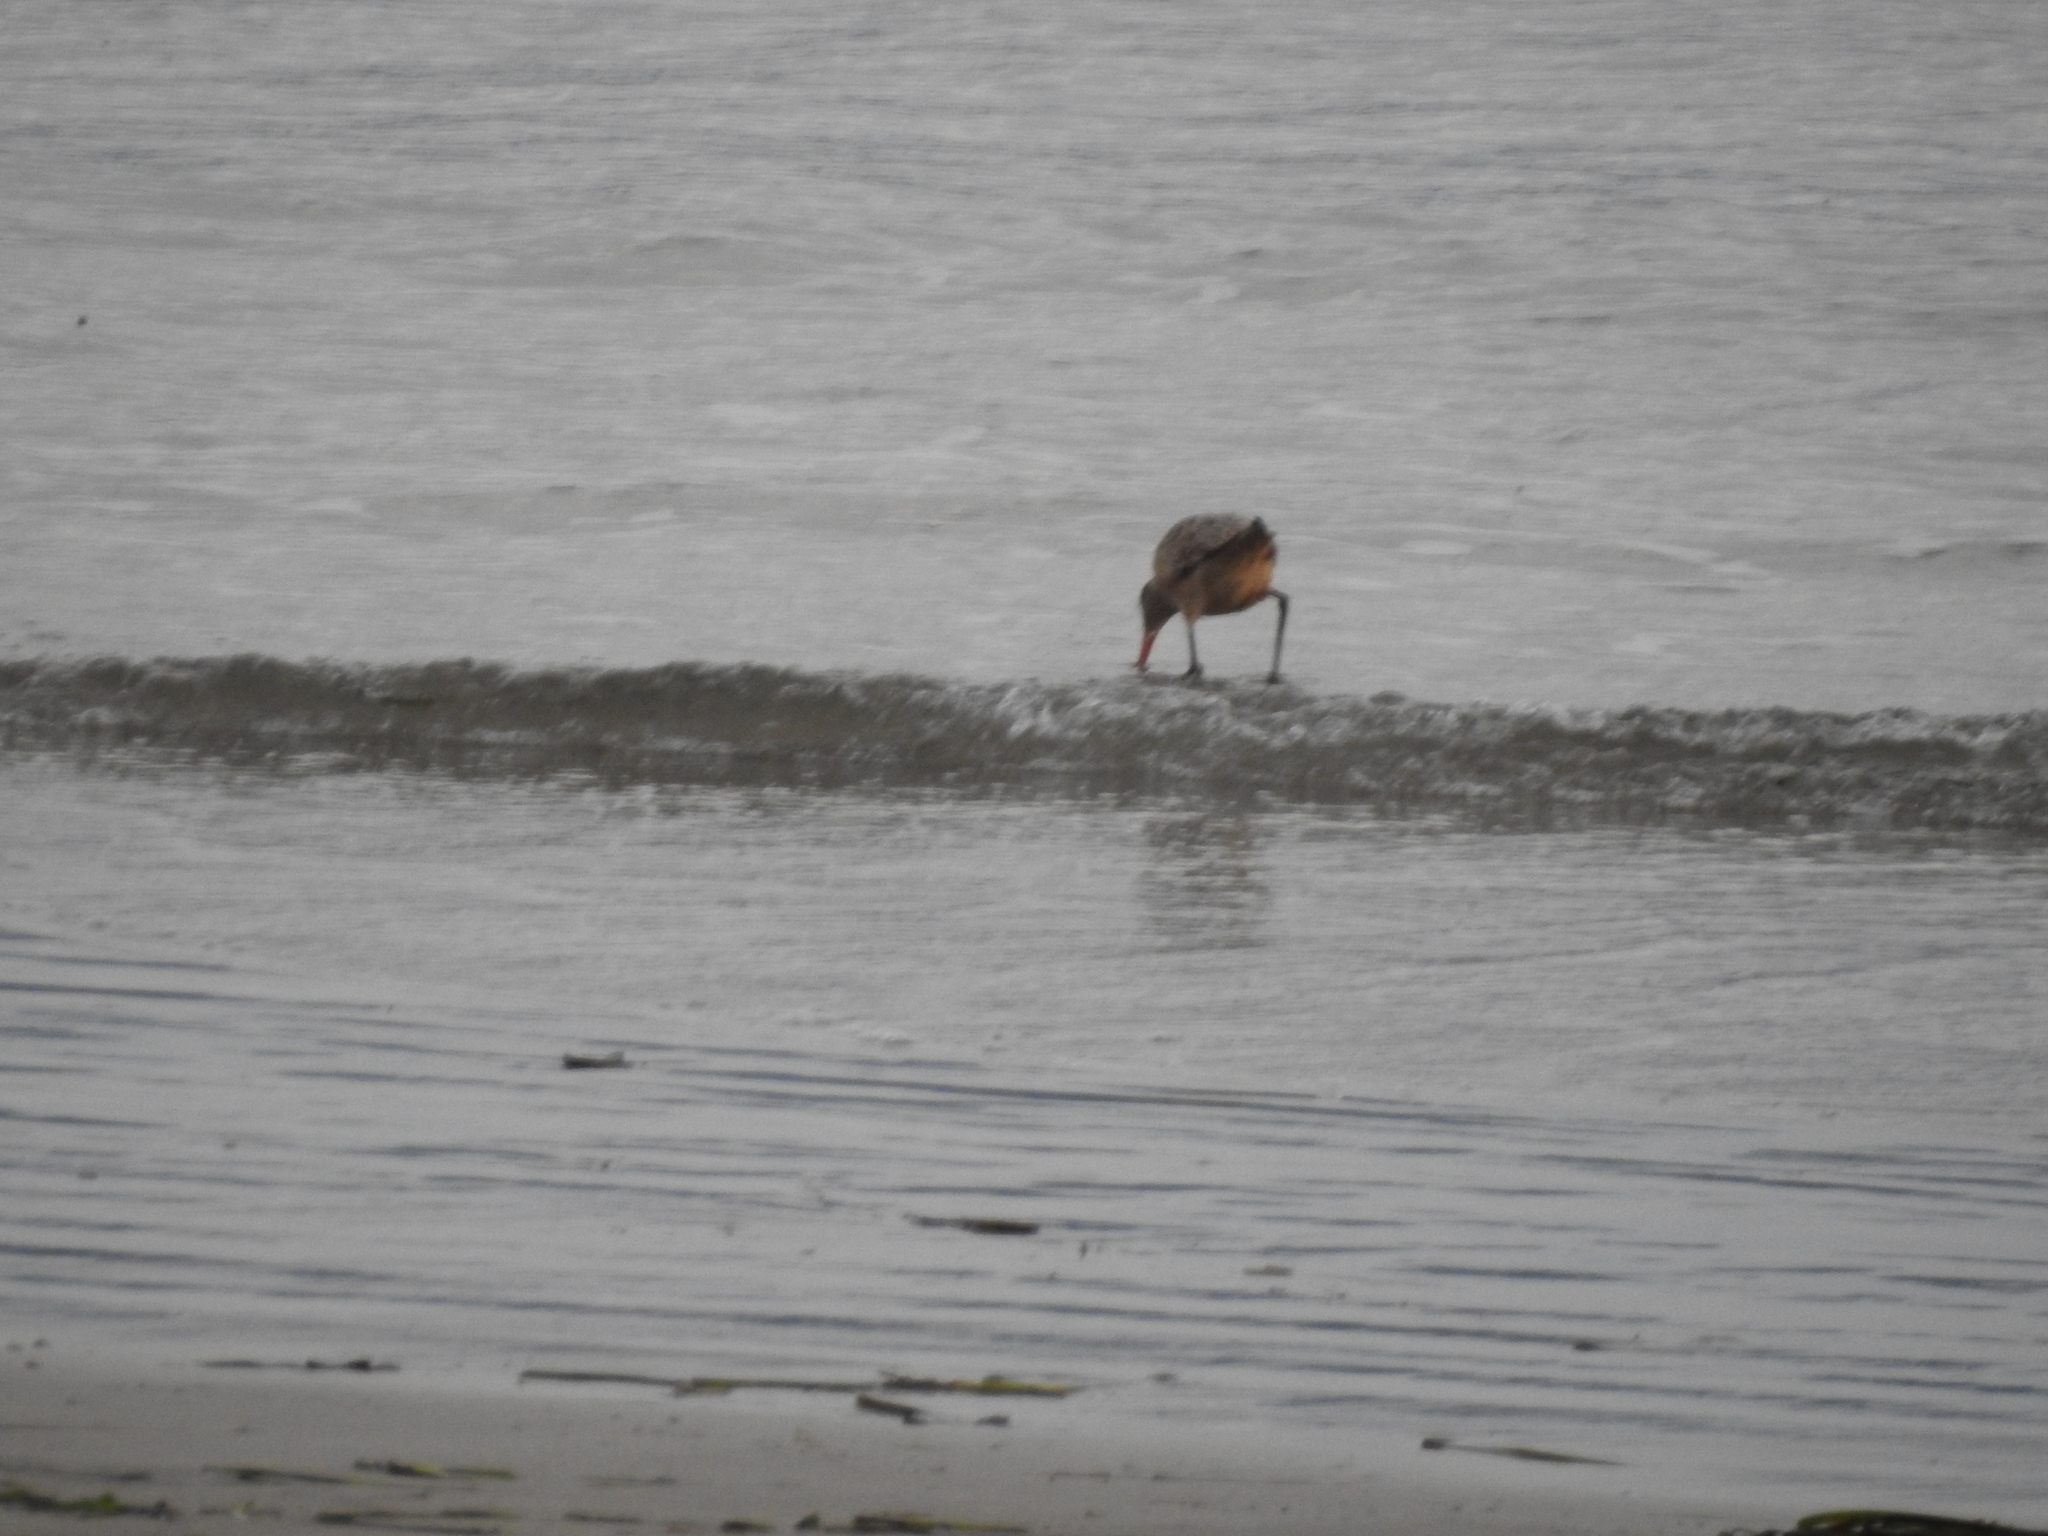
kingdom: Animalia
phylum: Chordata
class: Aves
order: Charadriiformes
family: Scolopacidae
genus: Limosa
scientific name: Limosa fedoa
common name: Marbled godwit
